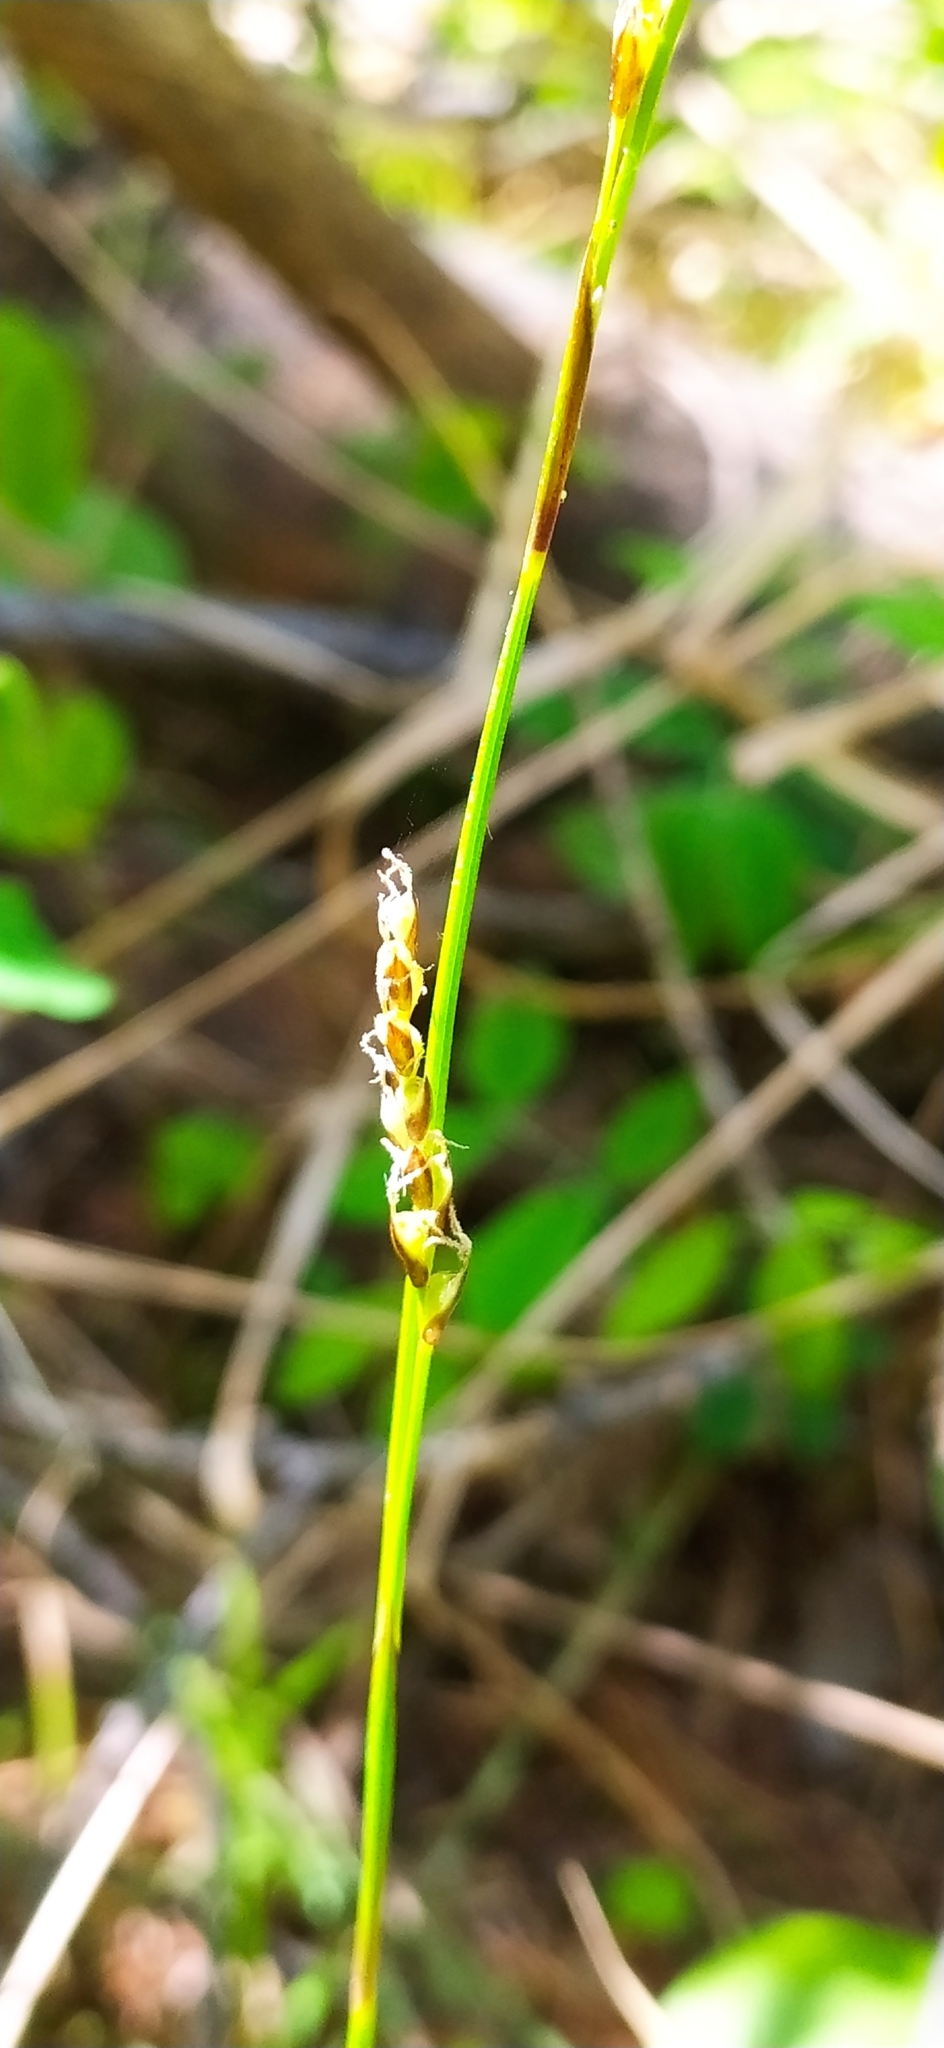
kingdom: Plantae
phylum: Tracheophyta
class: Liliopsida
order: Poales
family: Cyperaceae
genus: Carex
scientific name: Carex rhizina
